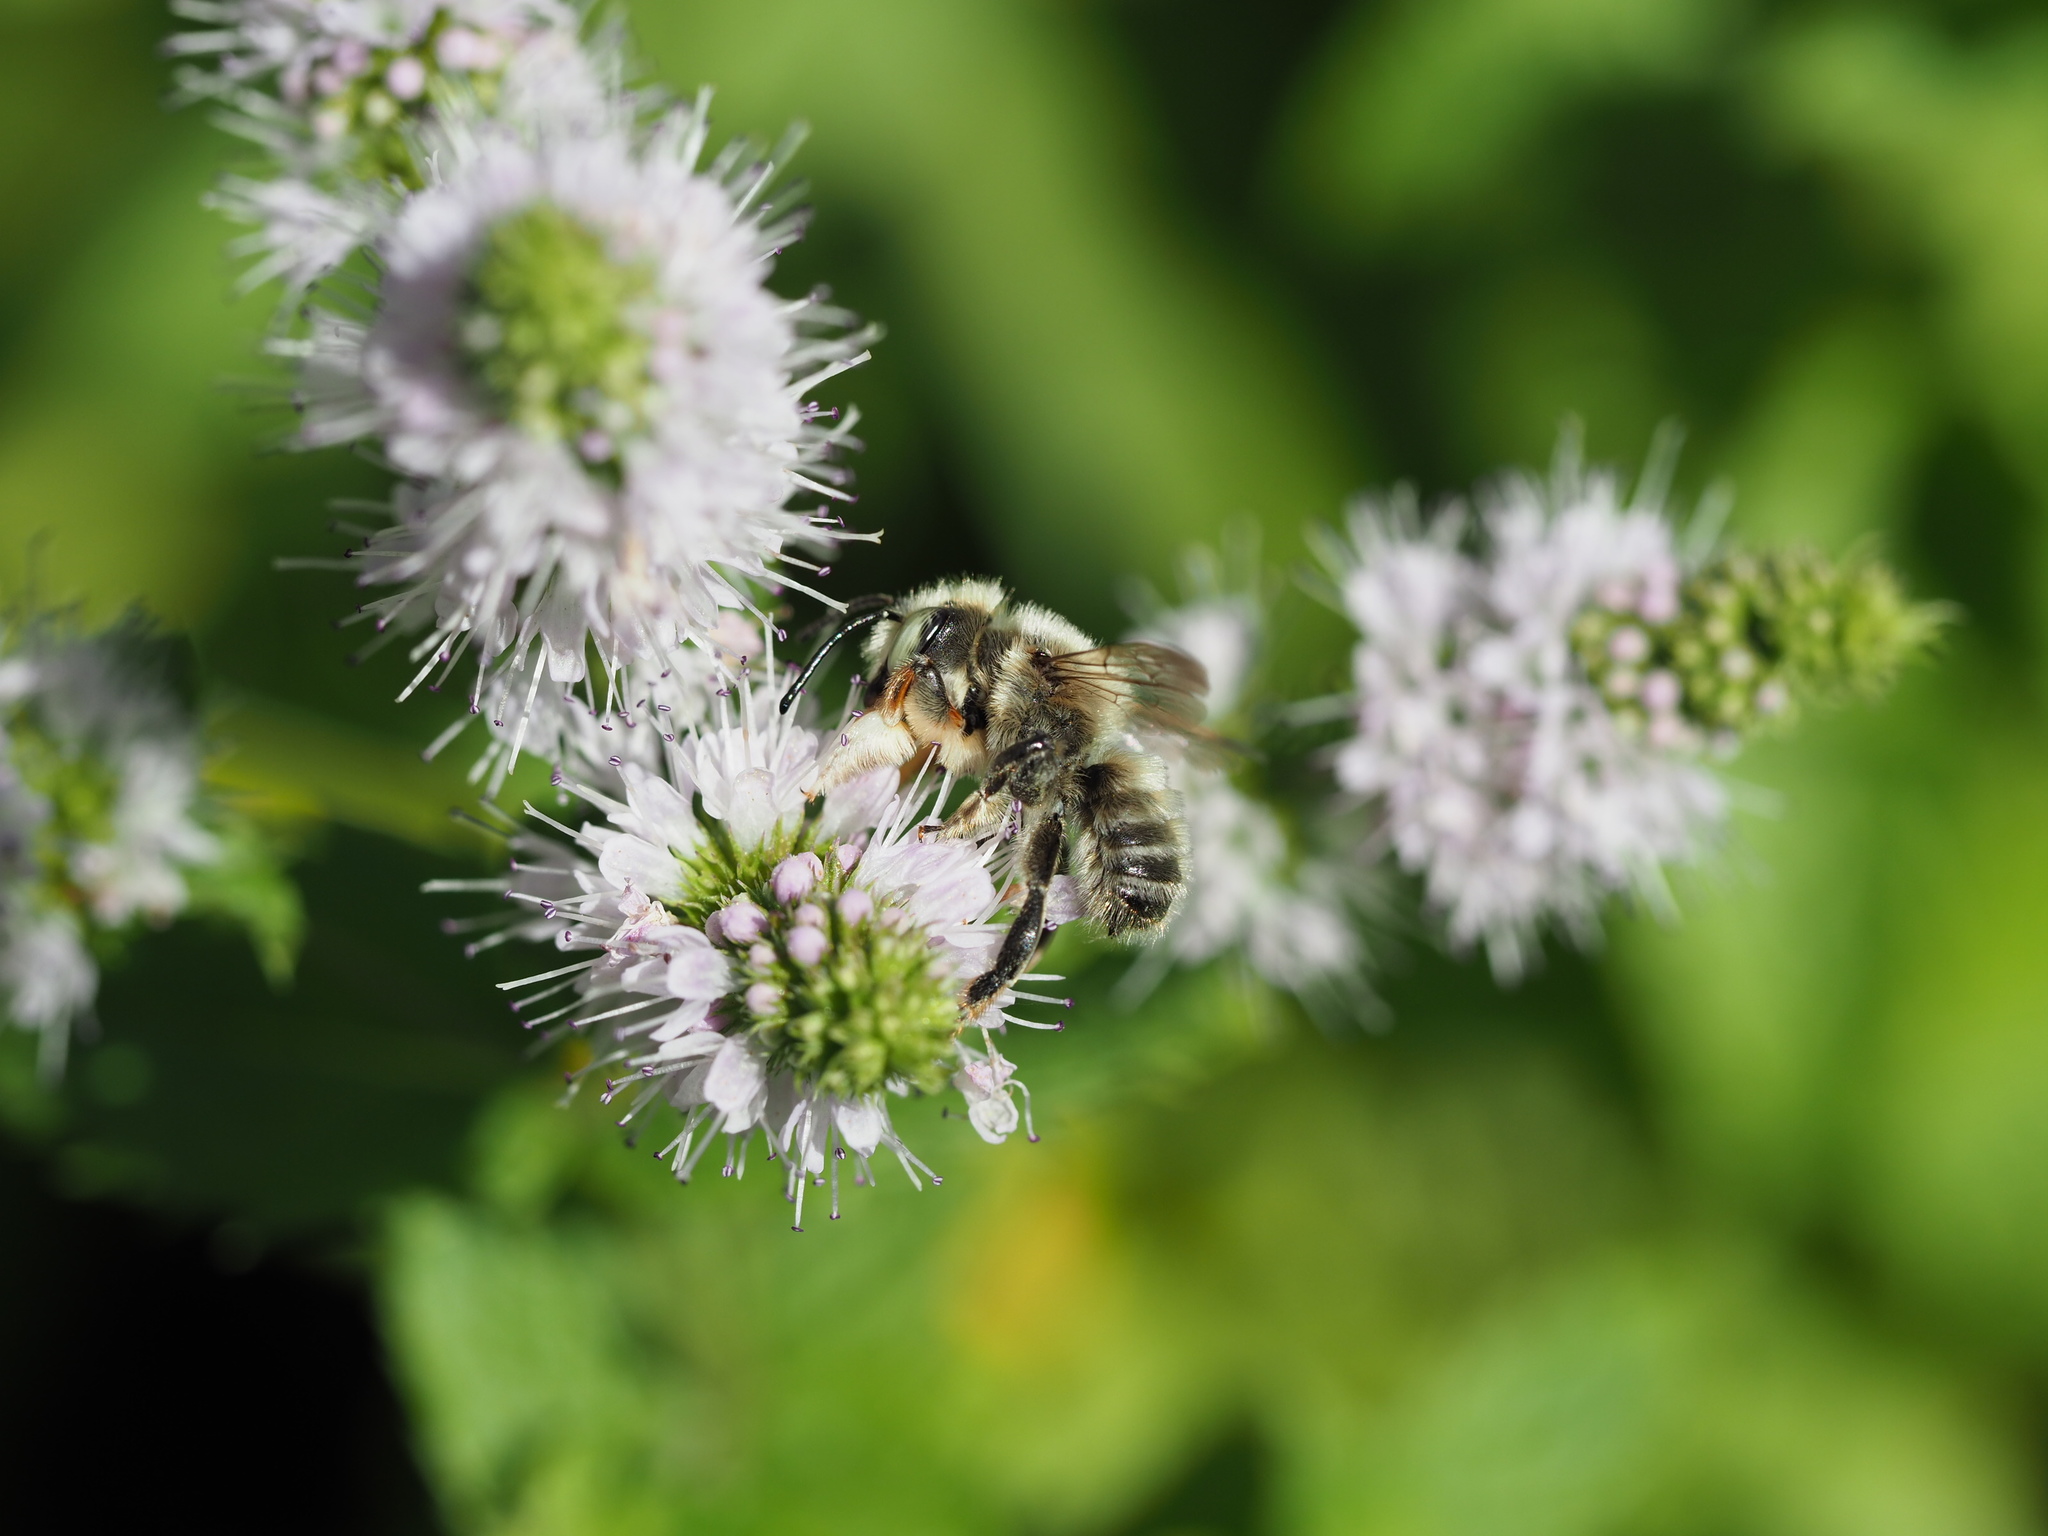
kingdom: Animalia
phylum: Arthropoda
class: Insecta
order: Hymenoptera
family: Megachilidae
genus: Megachile
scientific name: Megachile perihirta
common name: Western leafcutter
